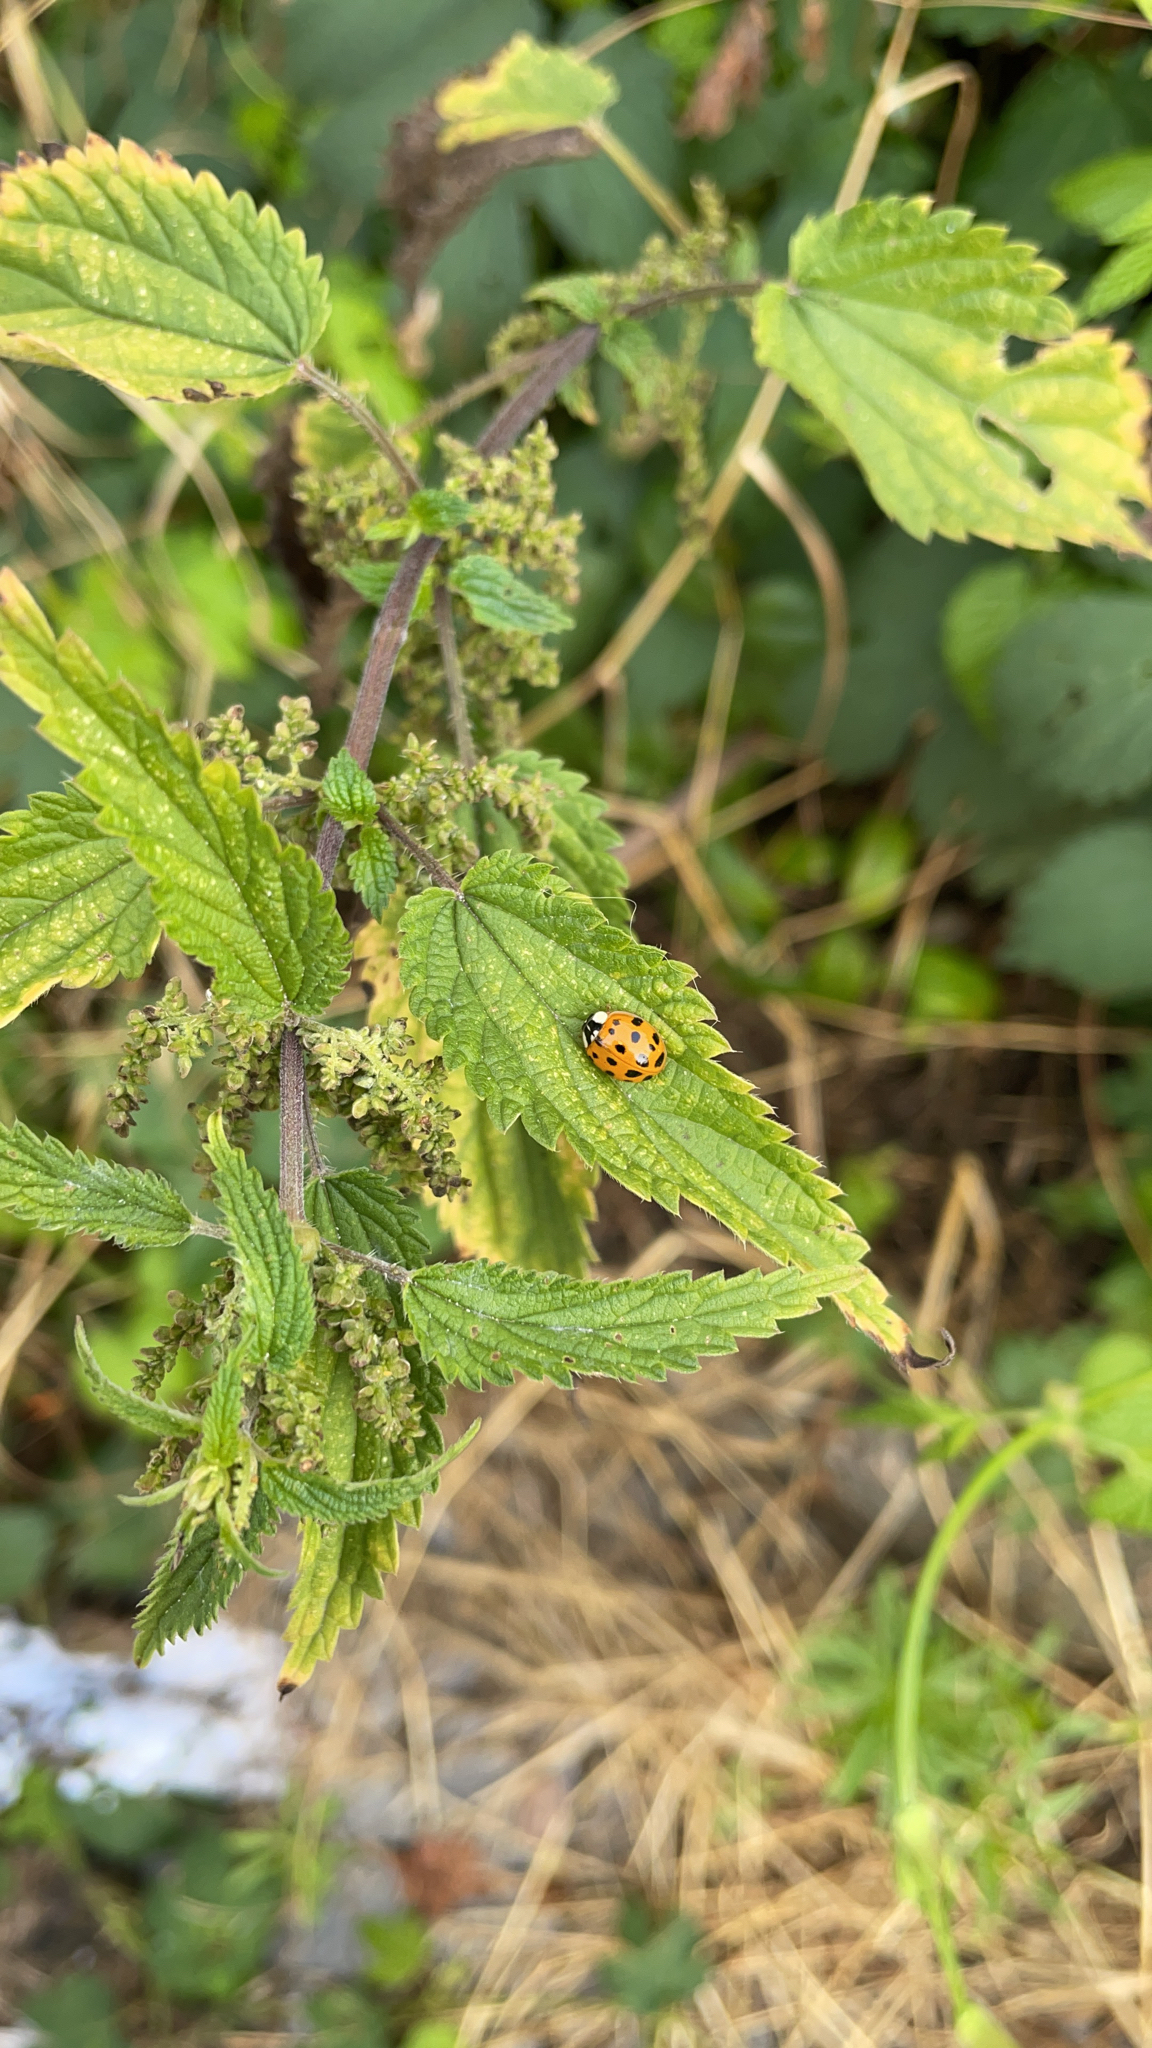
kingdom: Animalia
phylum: Arthropoda
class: Insecta
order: Coleoptera
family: Coccinellidae
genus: Harmonia
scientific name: Harmonia axyridis
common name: Harlequin ladybird
